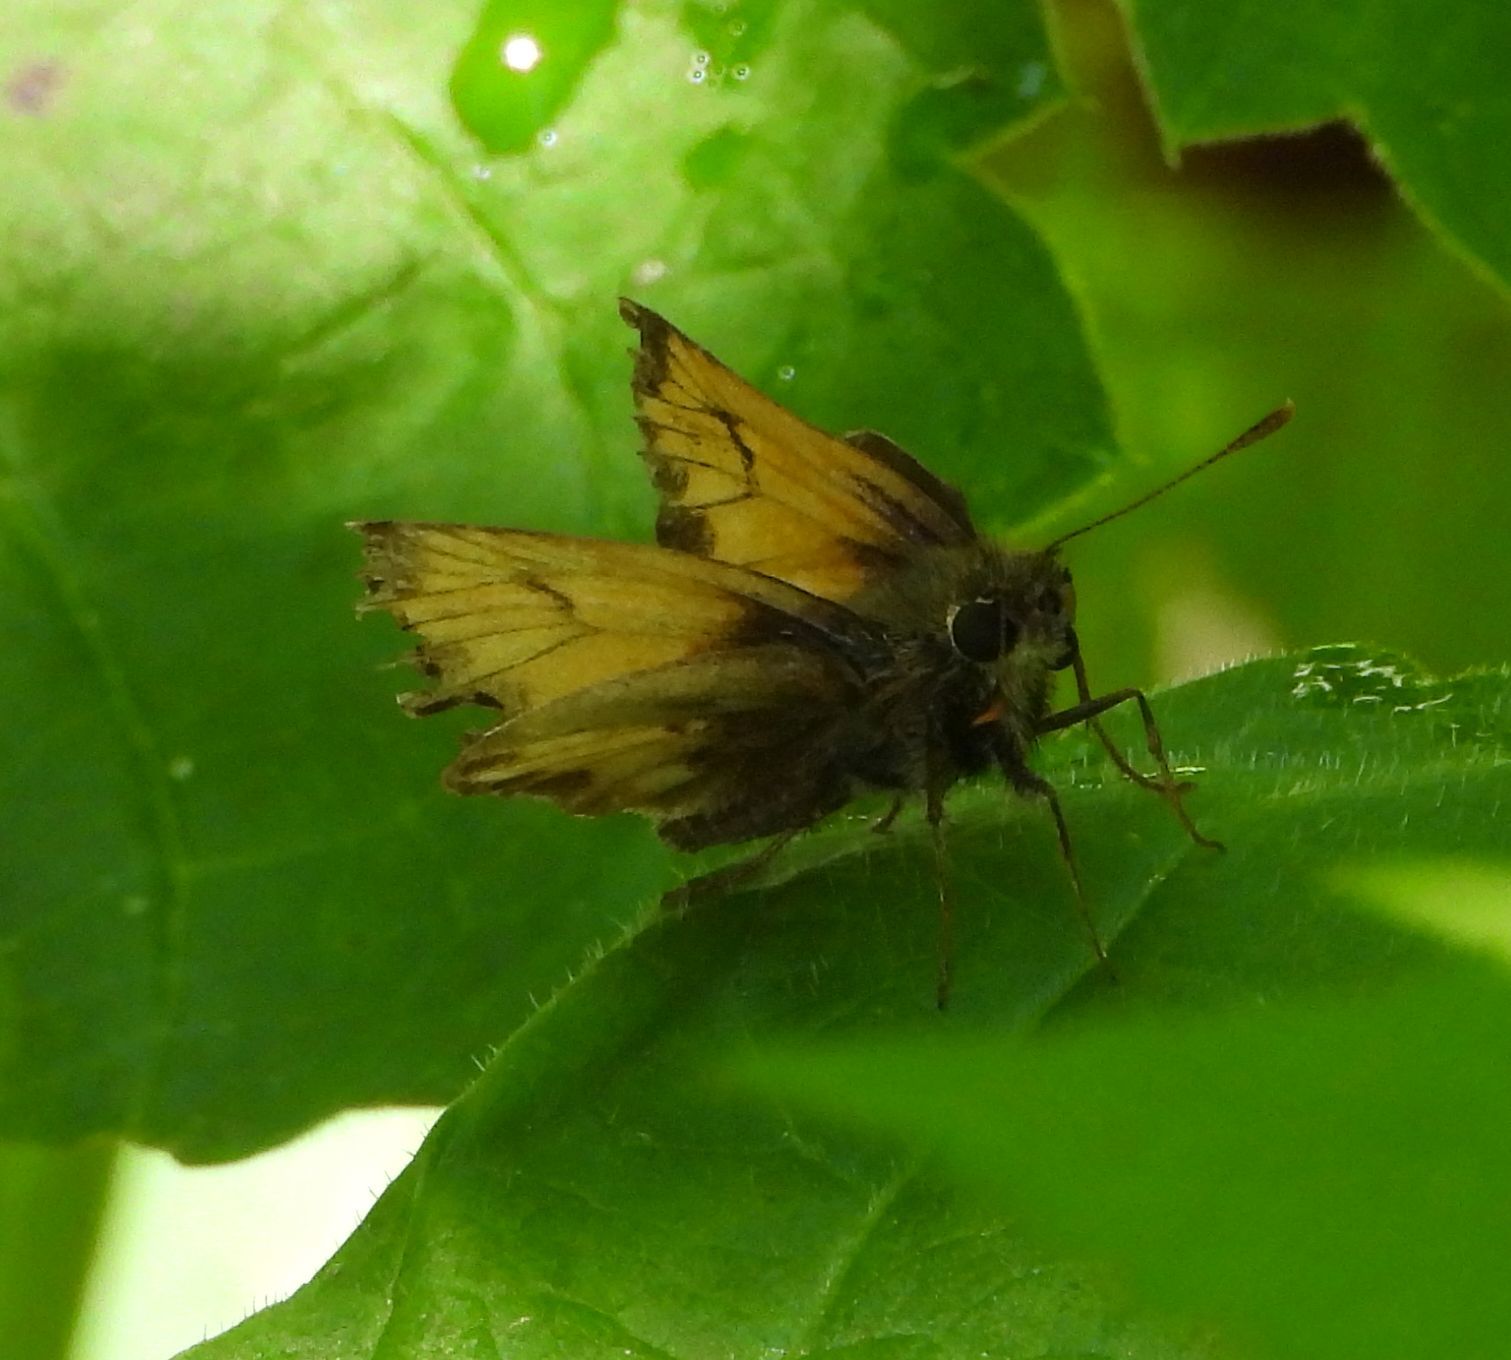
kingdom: Animalia
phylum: Arthropoda
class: Insecta
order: Lepidoptera
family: Hesperiidae
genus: Lon
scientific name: Lon hobomok
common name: Hobomok skipper
